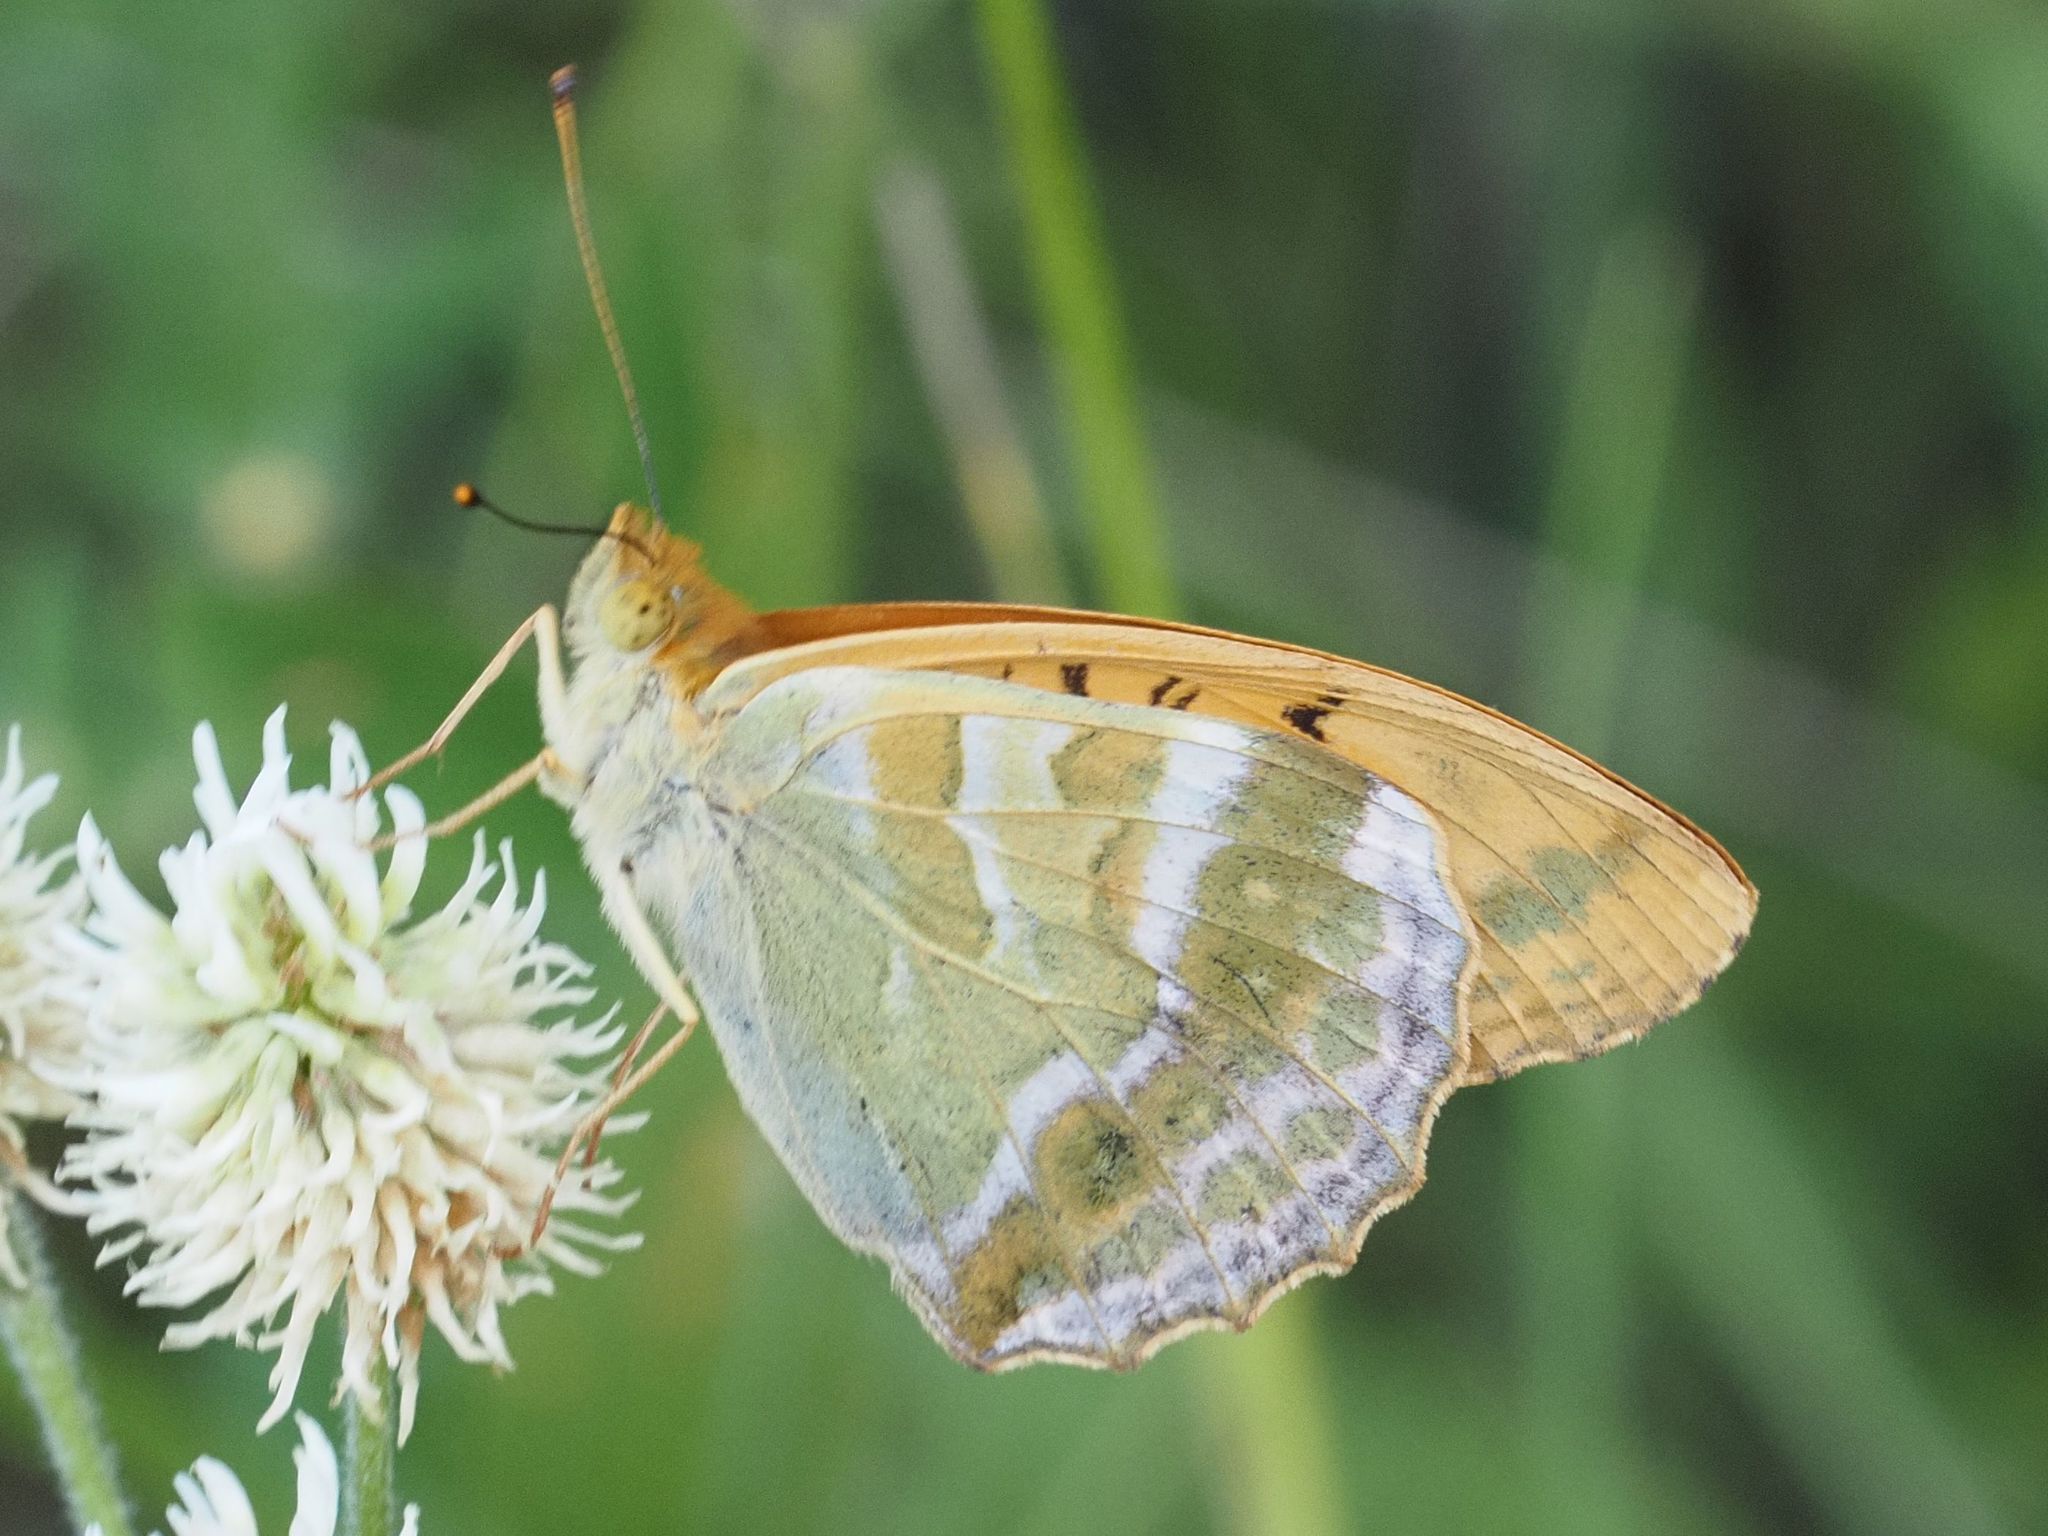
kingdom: Animalia
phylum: Arthropoda
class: Insecta
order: Lepidoptera
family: Nymphalidae
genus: Argynnis
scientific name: Argynnis paphia
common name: Silver-washed fritillary
